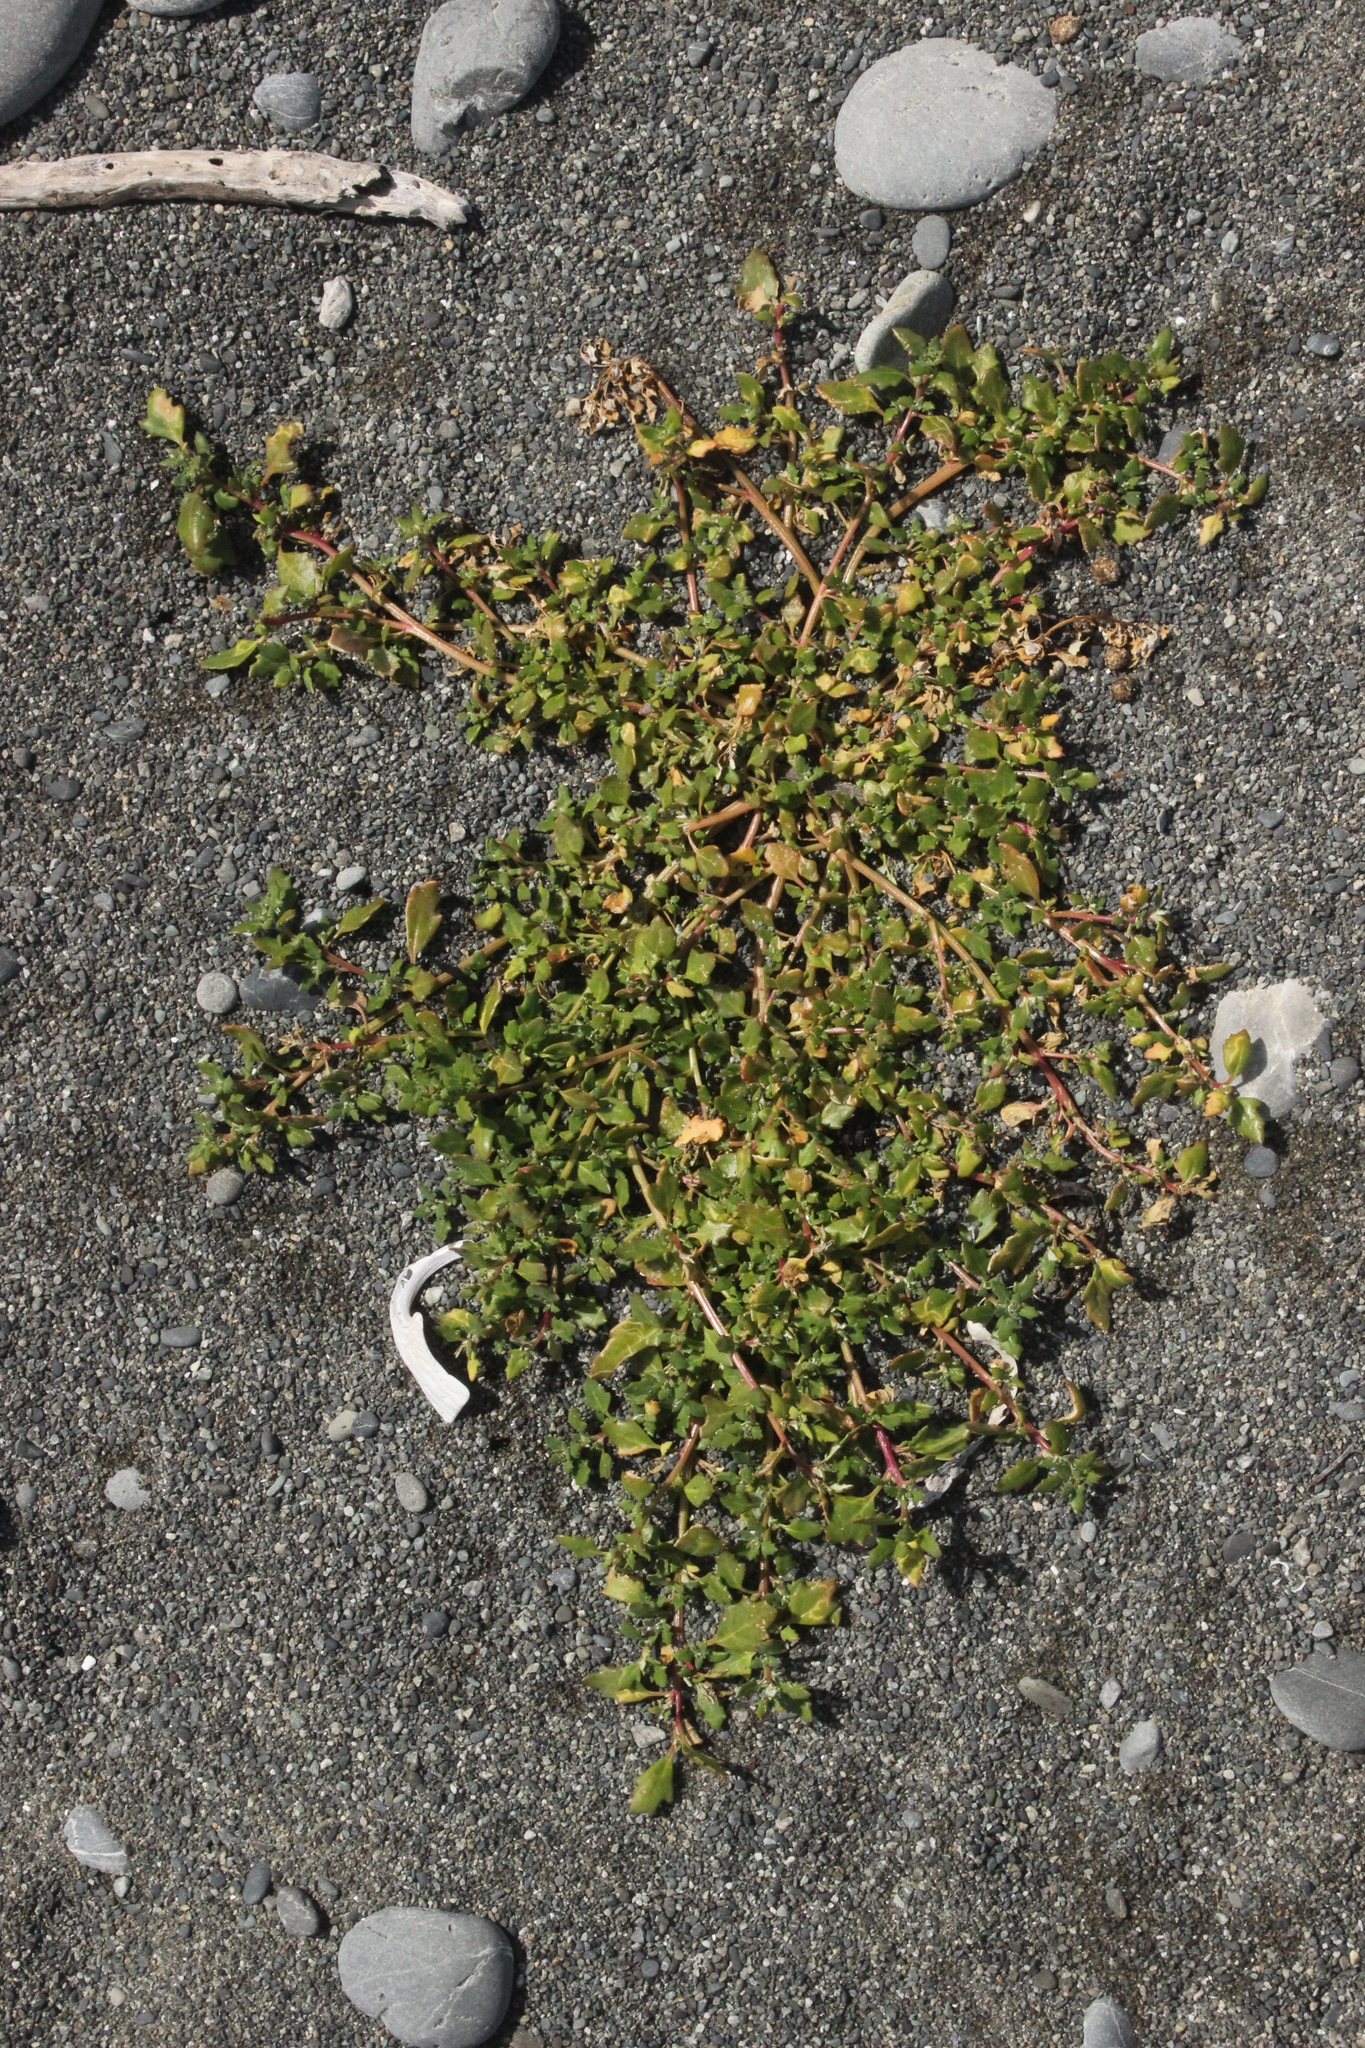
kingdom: Plantae
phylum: Tracheophyta
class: Magnoliopsida
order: Caryophyllales
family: Amaranthaceae
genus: Oxybasis
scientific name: Oxybasis ambigua
